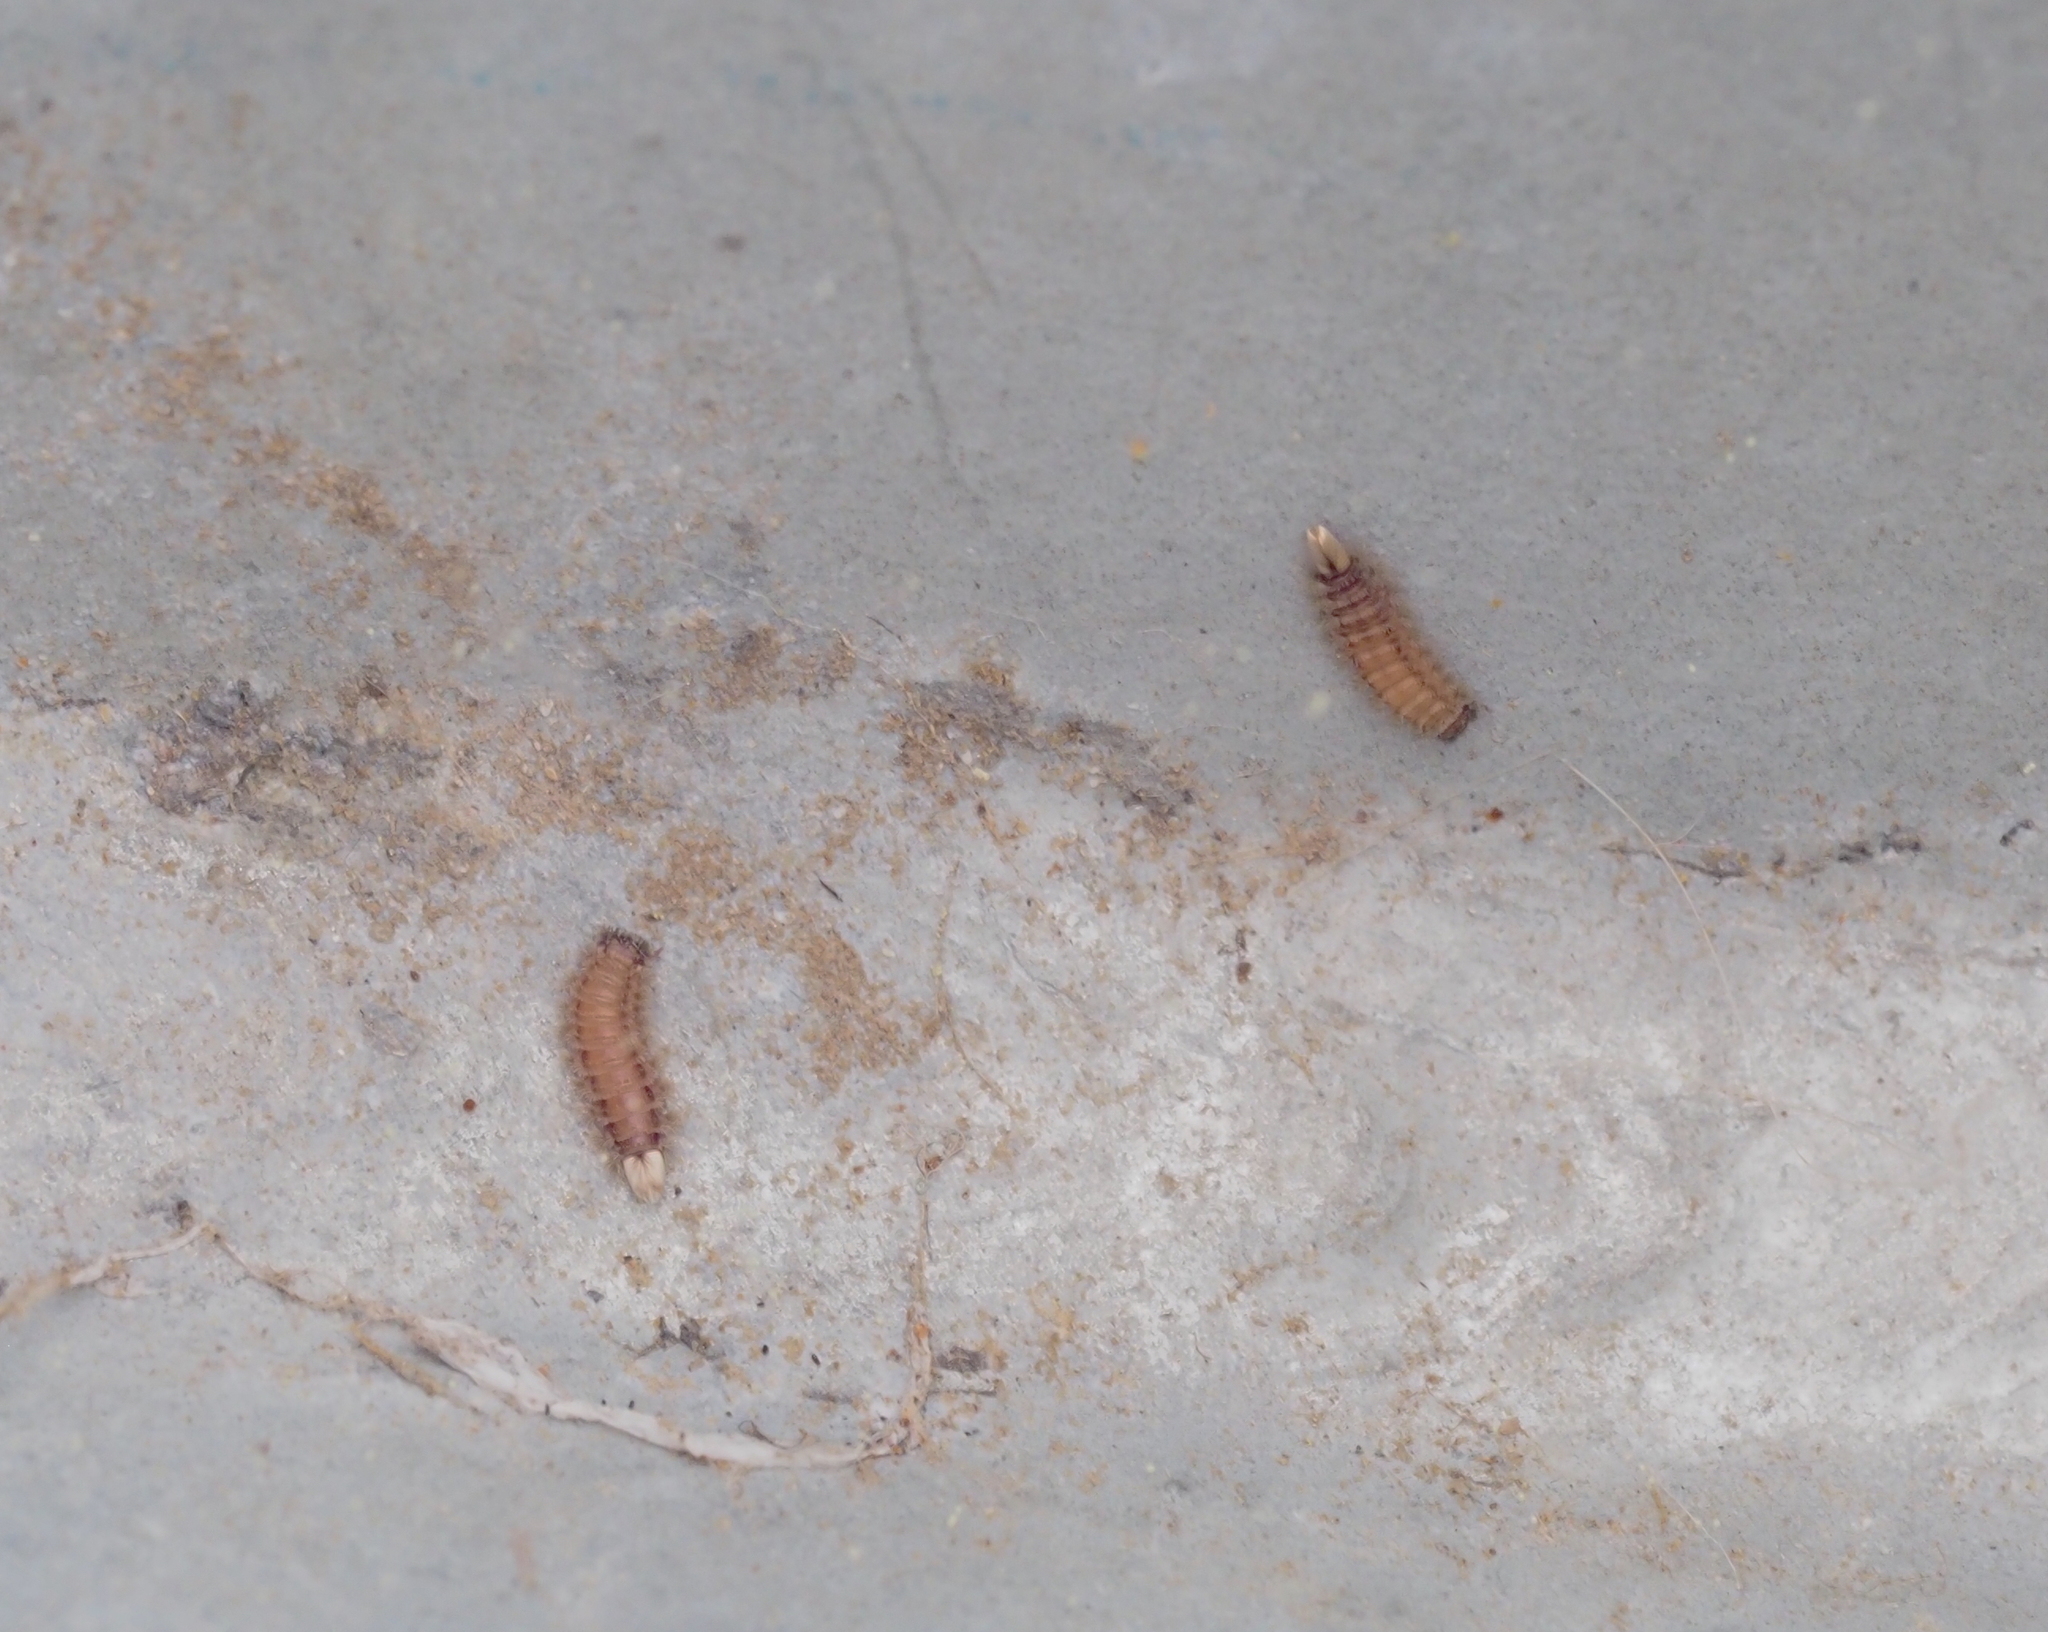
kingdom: Animalia
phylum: Arthropoda
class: Diplopoda
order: Polyxenida
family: Polyxenidae
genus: Polyxenus
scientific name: Polyxenus lagurus
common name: Bristly millipede
